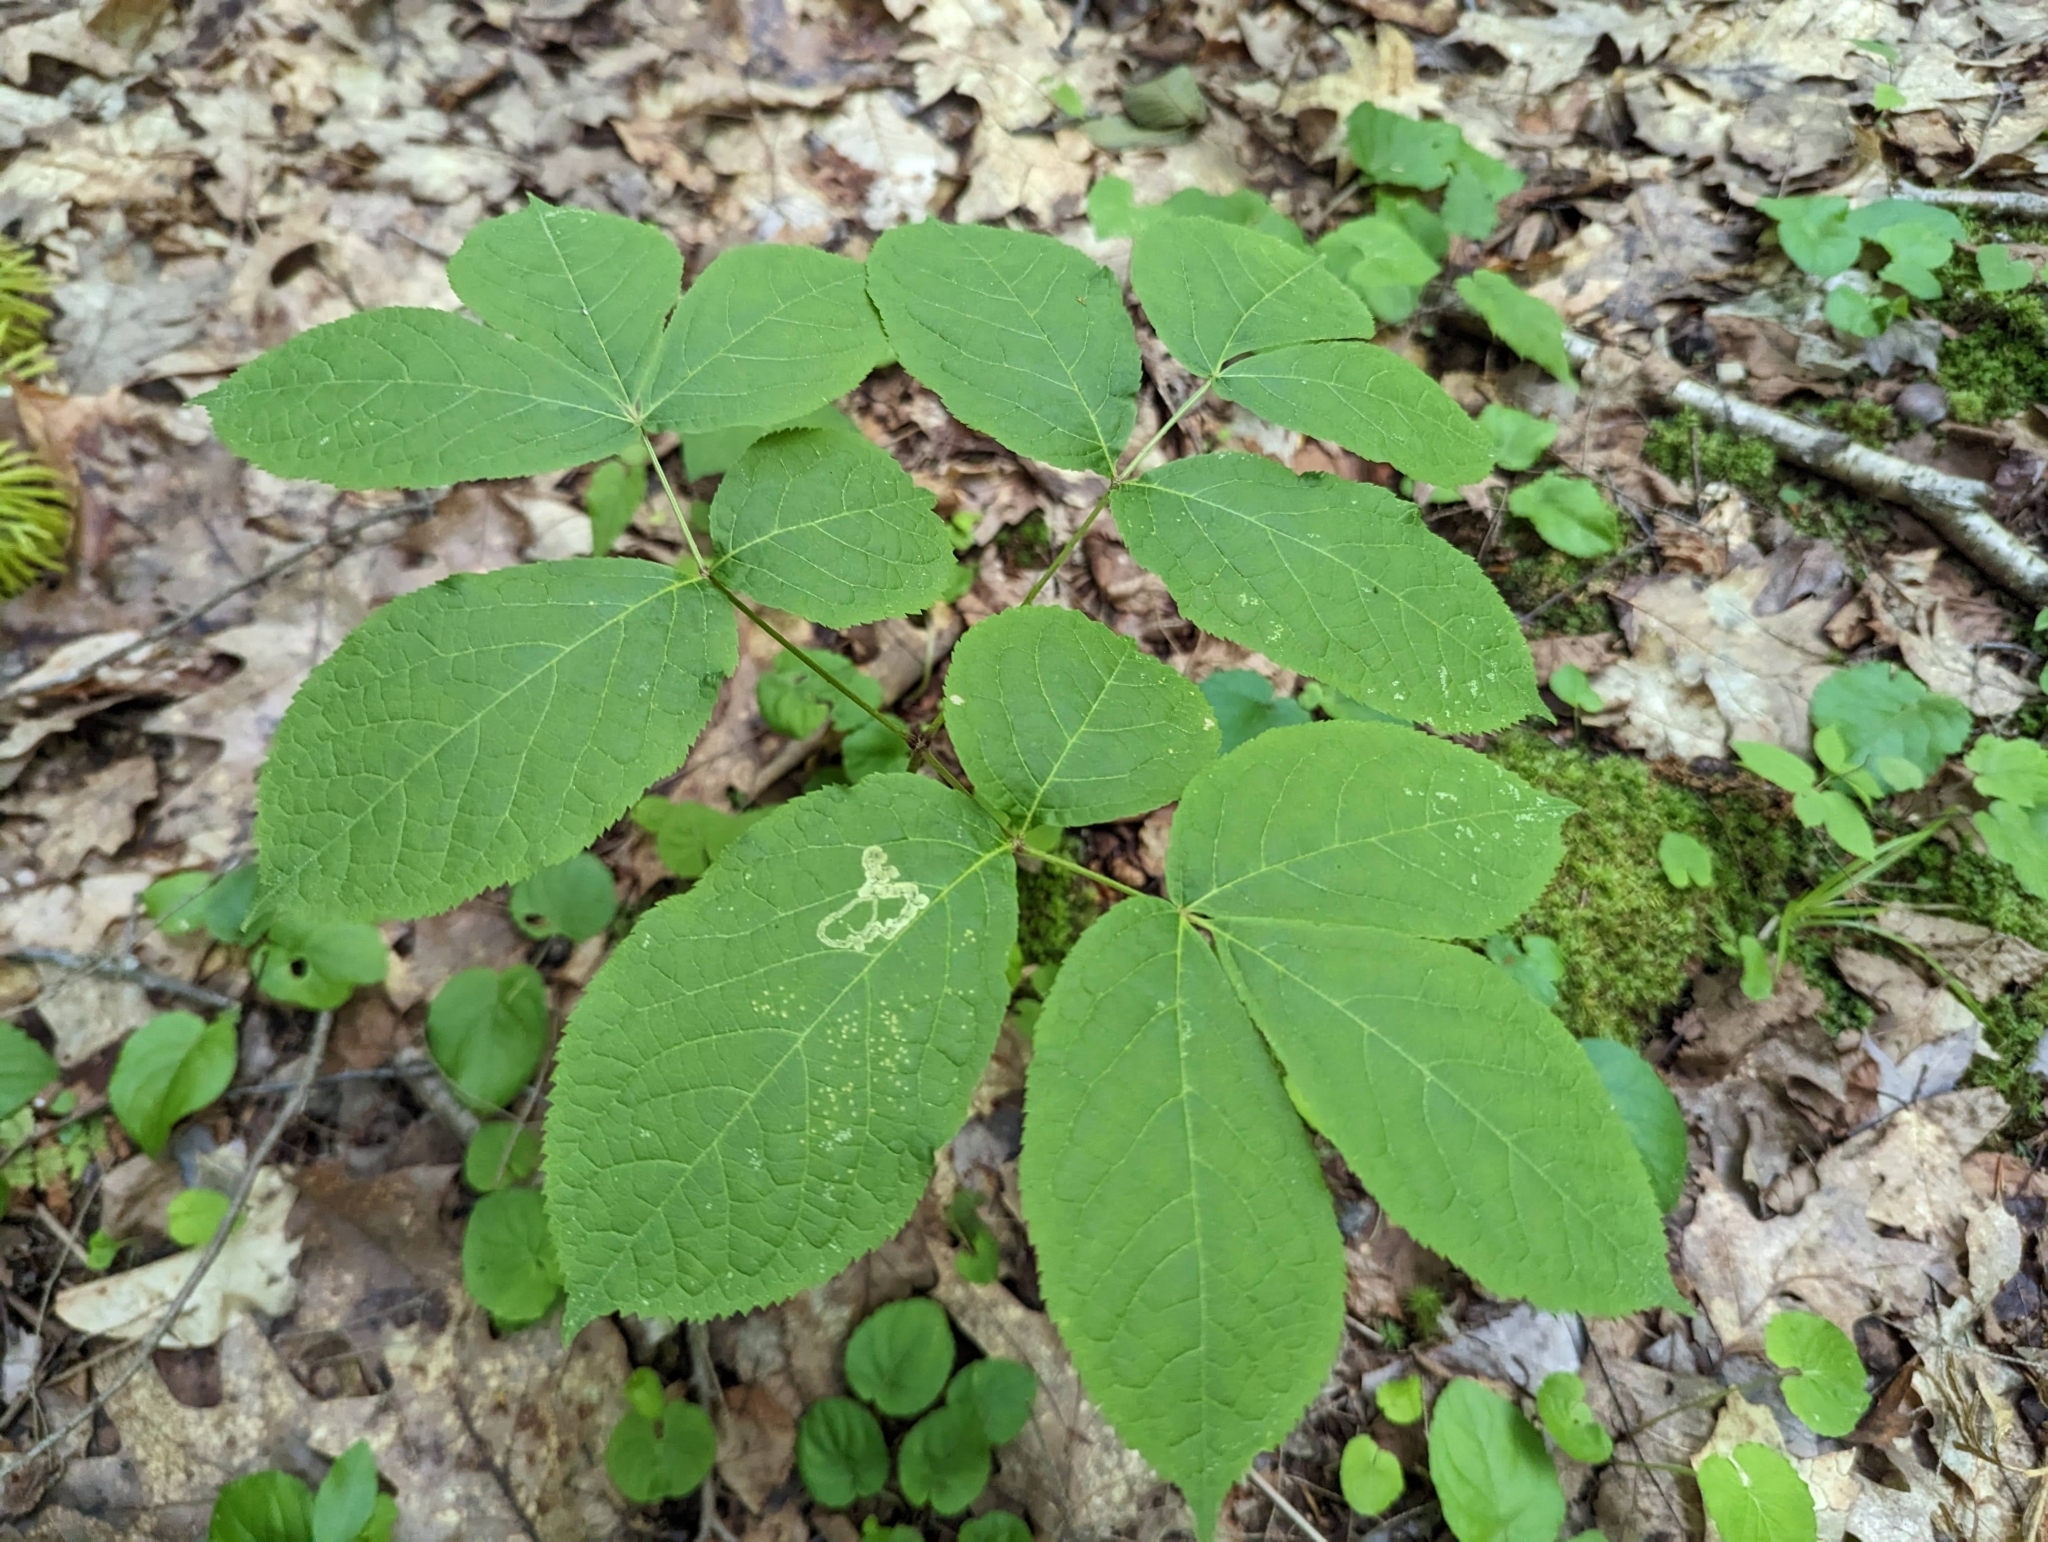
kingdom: Plantae
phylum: Tracheophyta
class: Magnoliopsida
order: Apiales
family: Araliaceae
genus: Aralia
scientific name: Aralia nudicaulis
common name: Wild sarsaparilla
